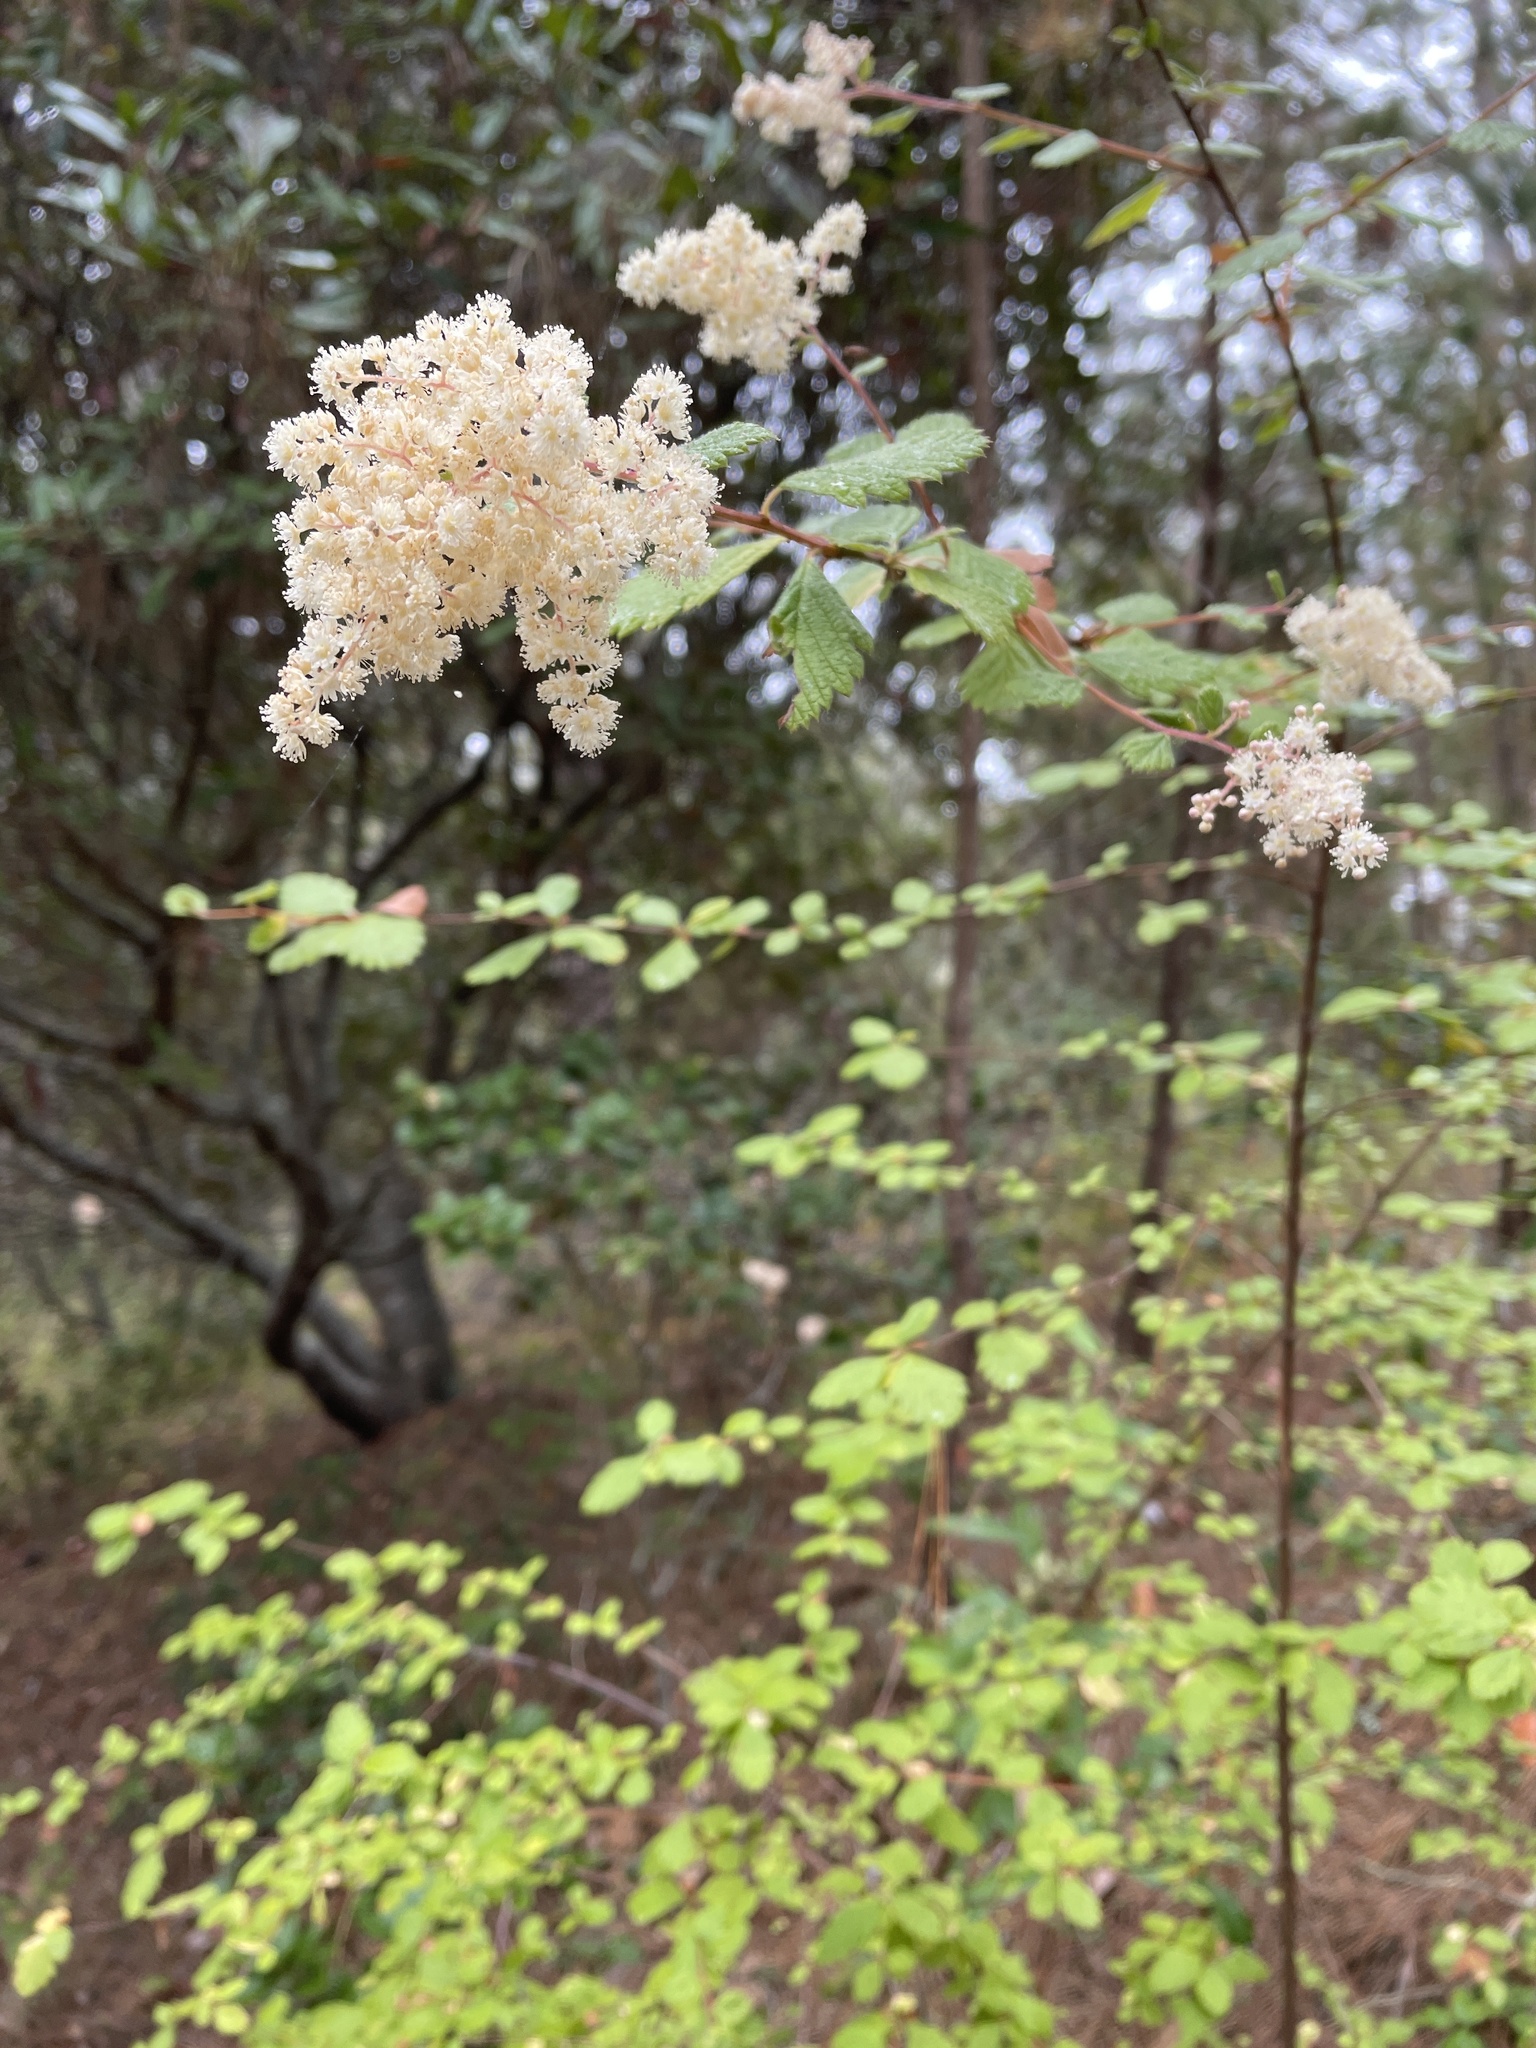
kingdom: Plantae
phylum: Tracheophyta
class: Magnoliopsida
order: Rosales
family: Rosaceae
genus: Holodiscus
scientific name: Holodiscus discolor
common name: Oceanspray
